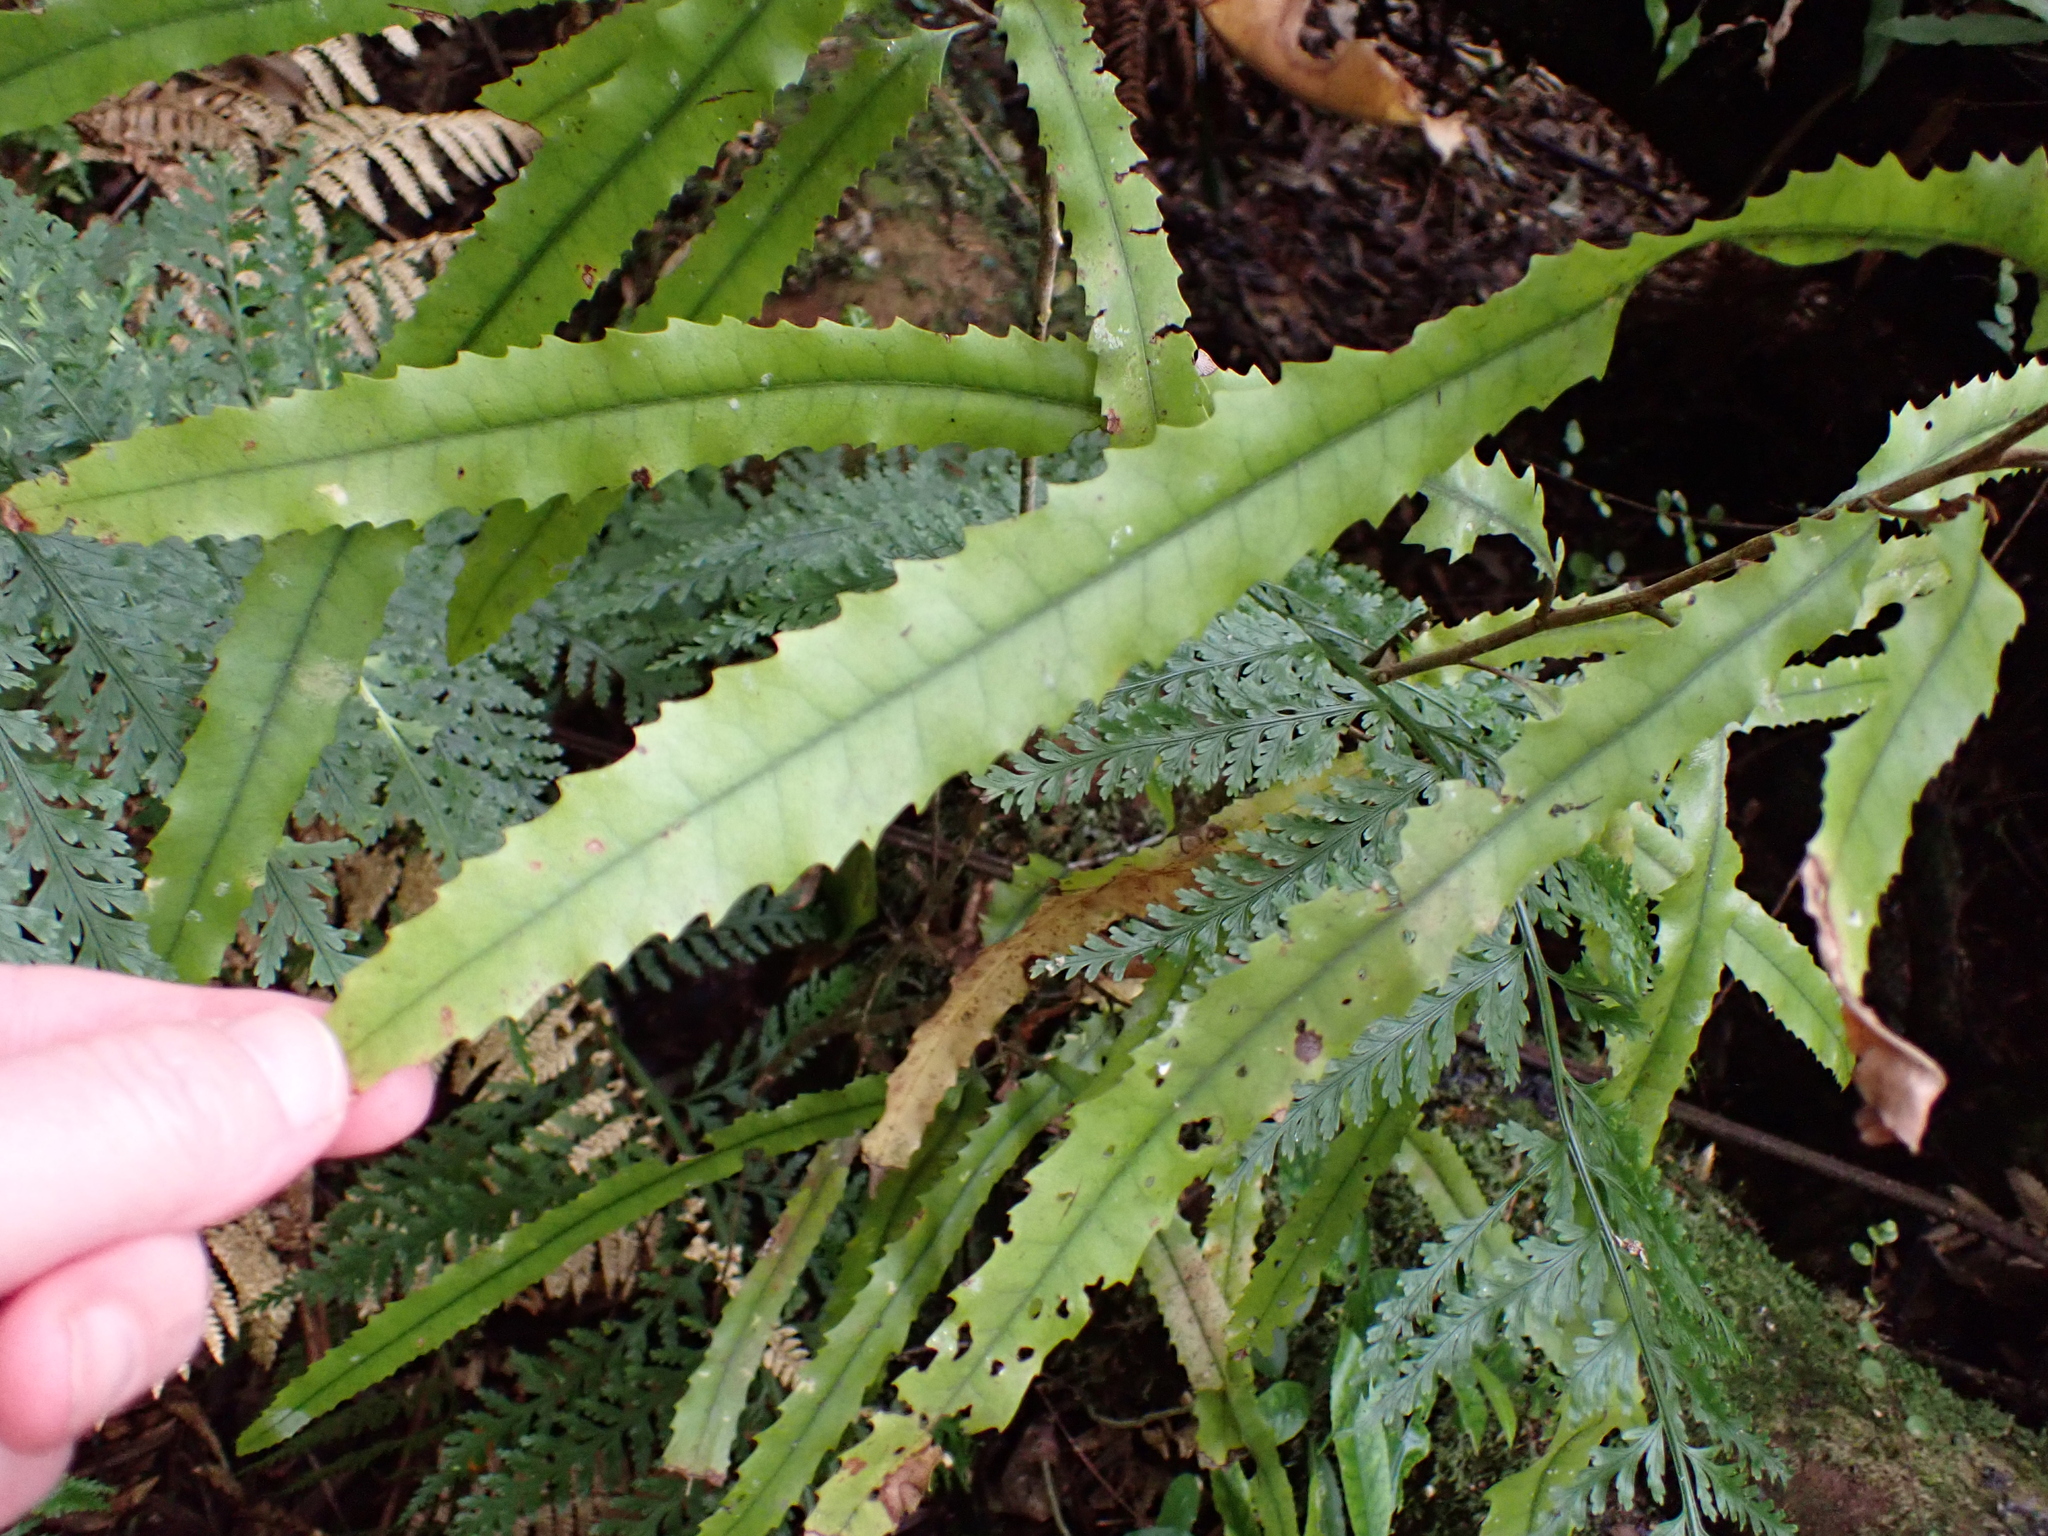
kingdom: Plantae
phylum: Tracheophyta
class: Magnoliopsida
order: Proteales
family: Proteaceae
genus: Knightia
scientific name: Knightia excelsa
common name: New zealand-honeysuckle
